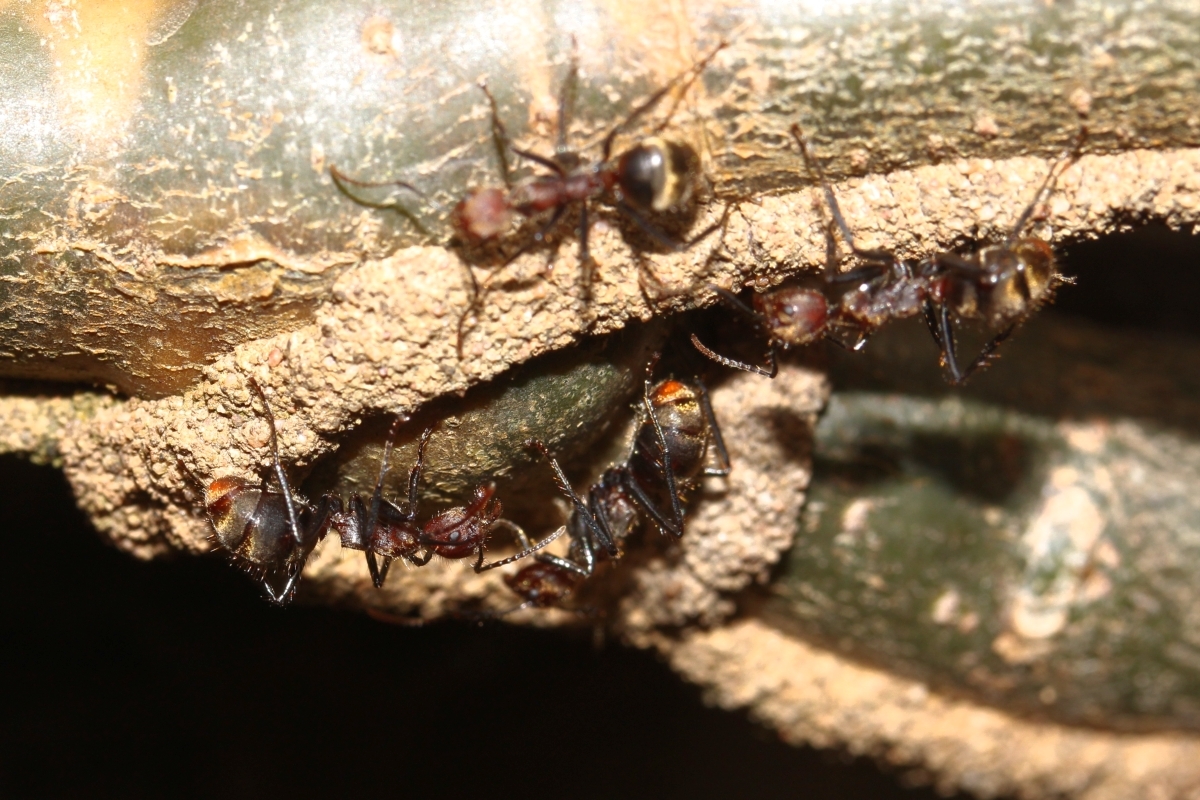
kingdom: Animalia
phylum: Arthropoda
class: Insecta
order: Hymenoptera
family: Formicidae
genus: Dolichoderus
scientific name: Dolichoderus quadridenticulatus
